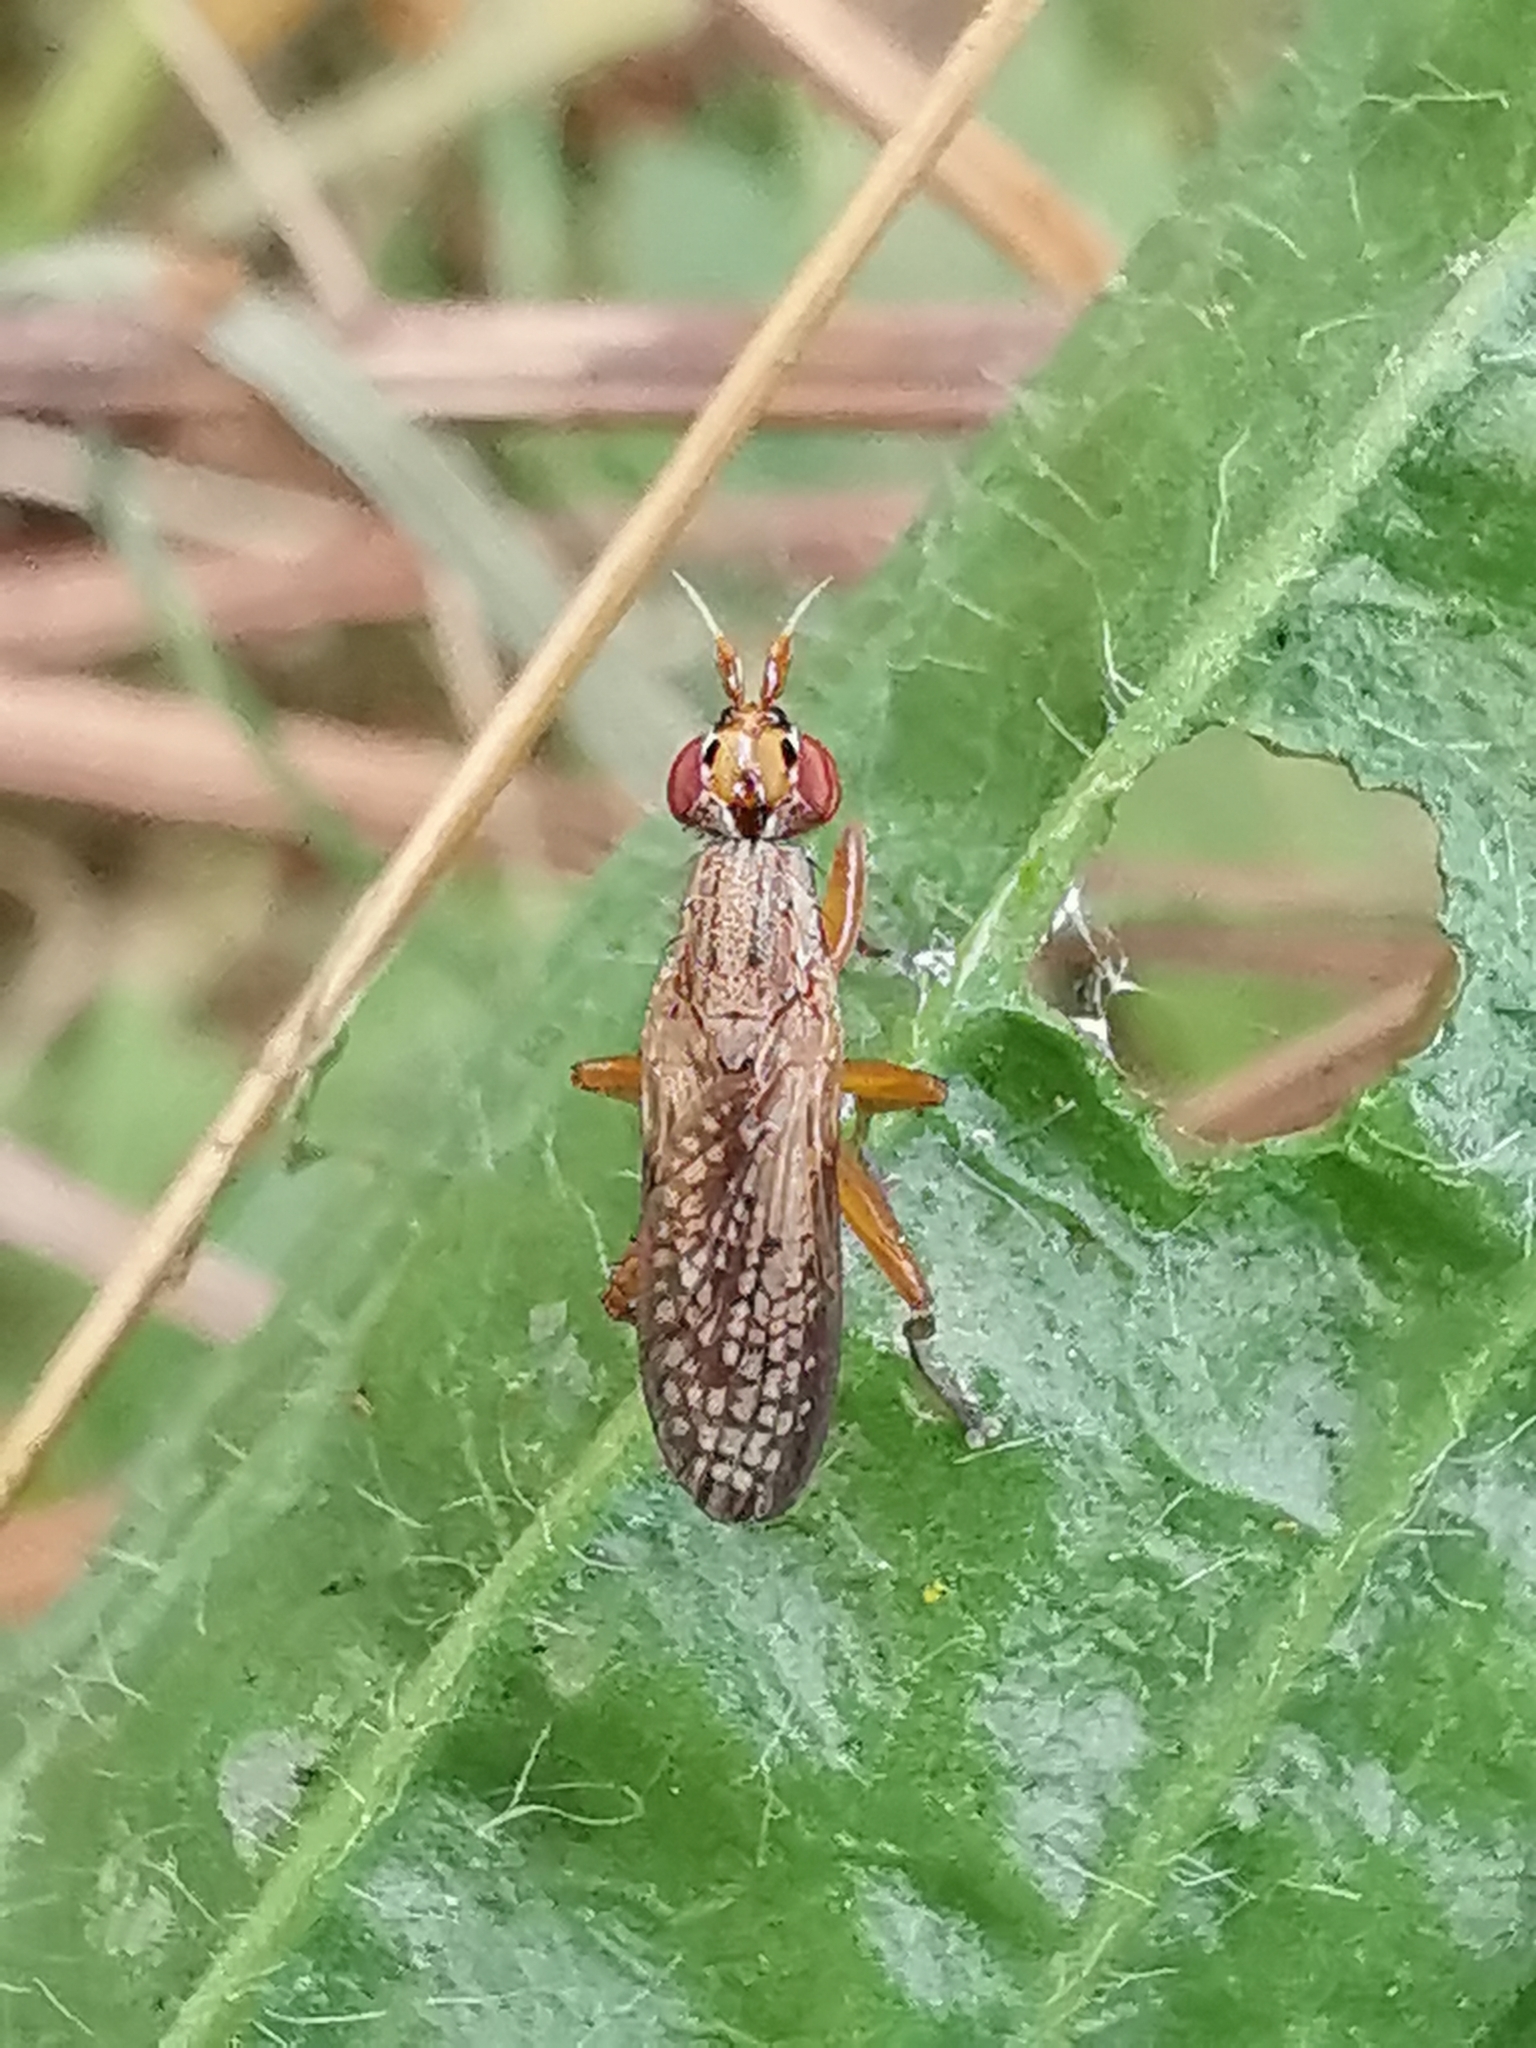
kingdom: Animalia
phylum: Arthropoda
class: Insecta
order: Diptera
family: Sciomyzidae
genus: Euthycera
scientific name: Euthycera fumigata
